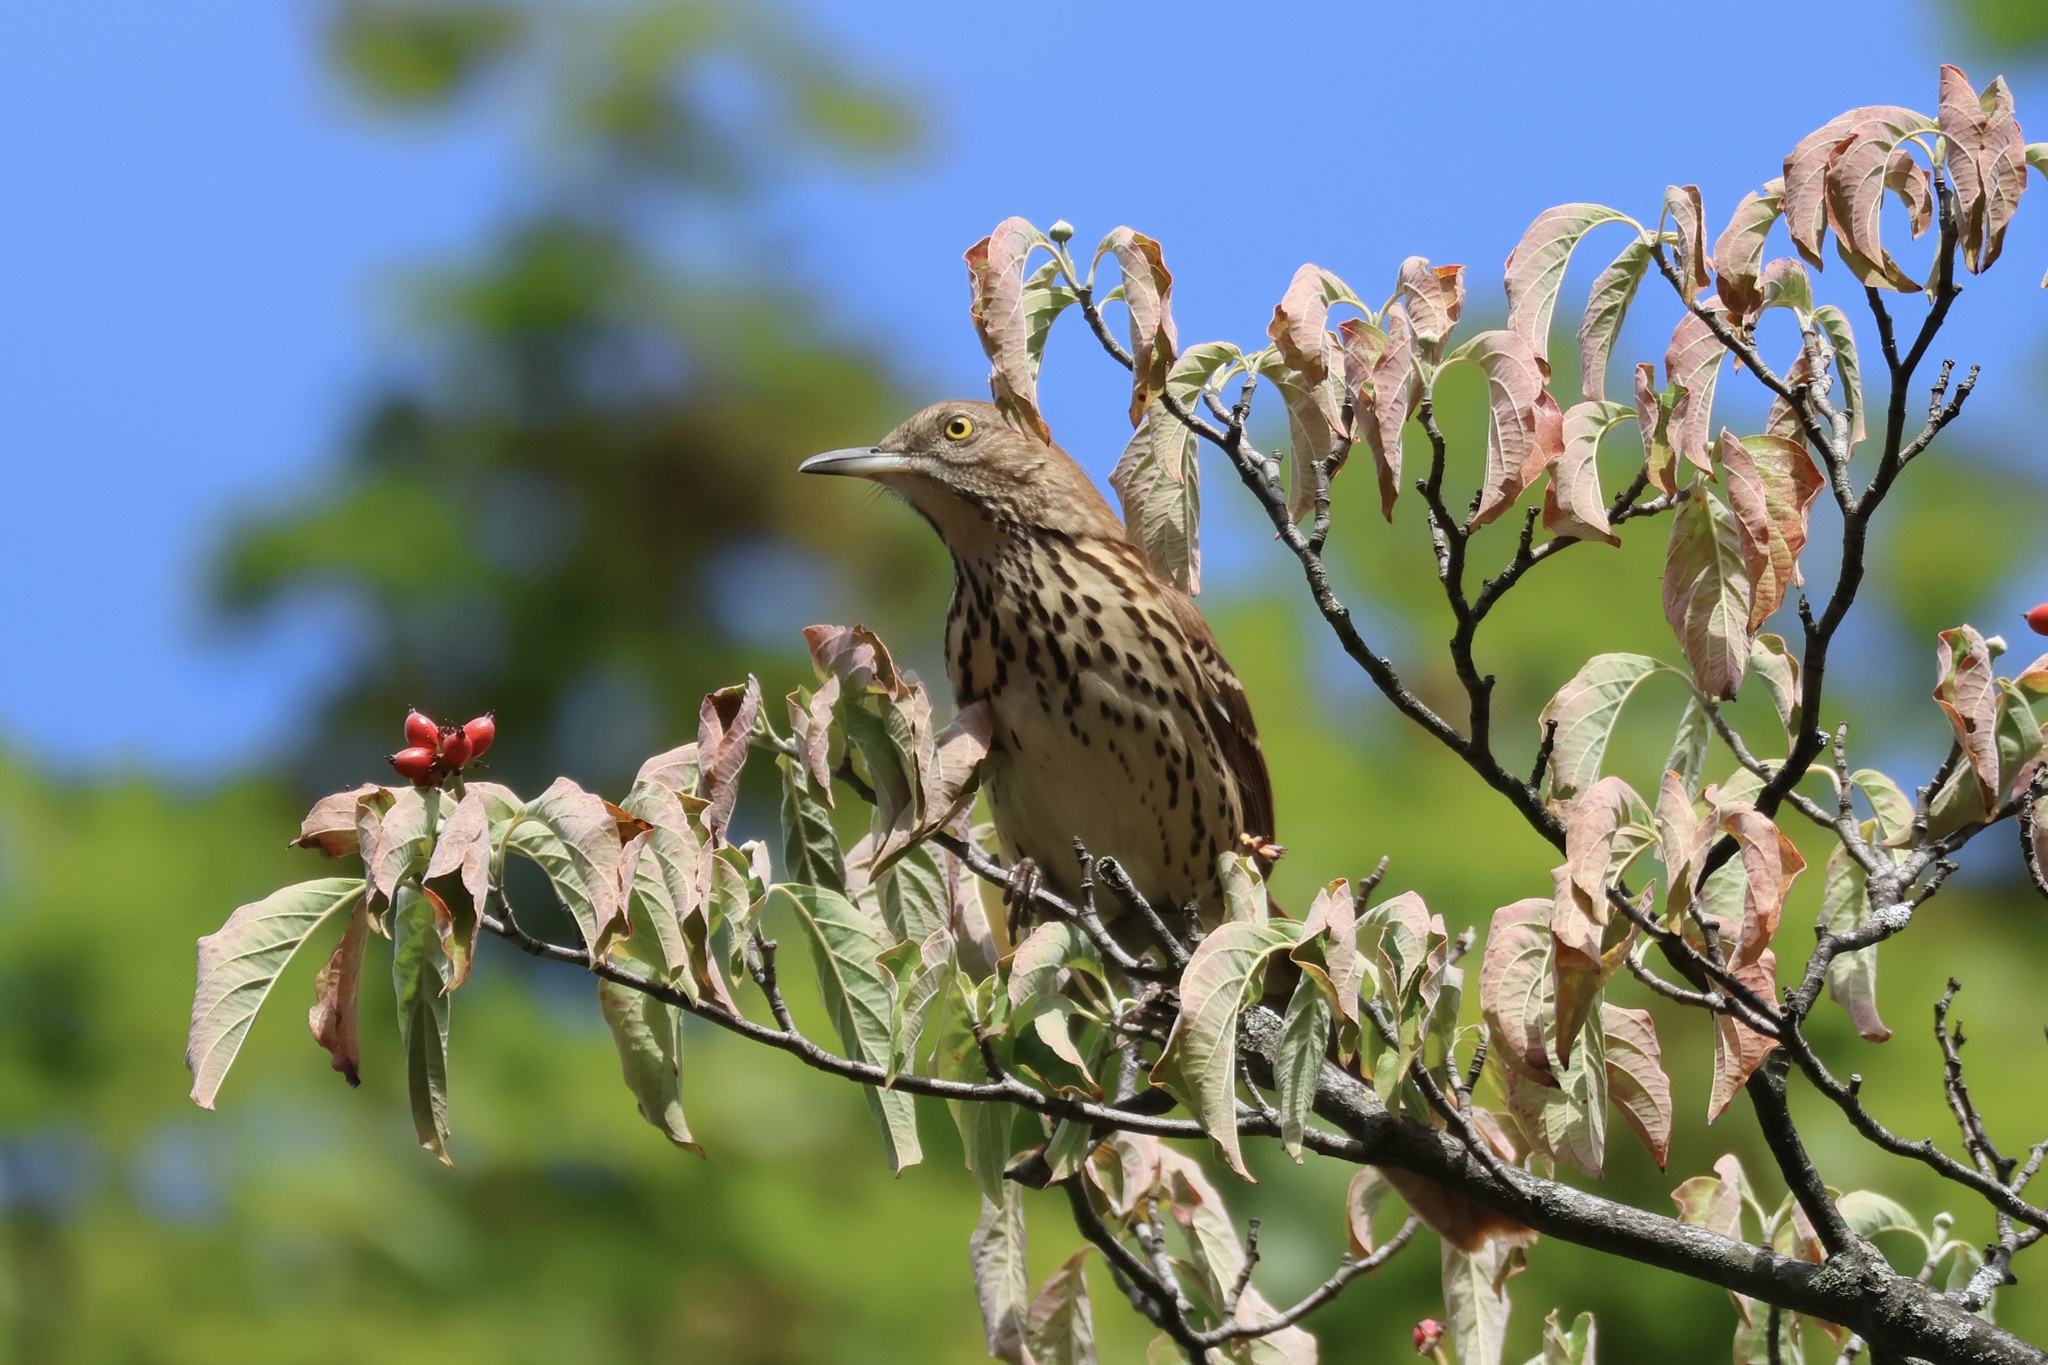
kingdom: Animalia
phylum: Chordata
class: Aves
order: Passeriformes
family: Mimidae
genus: Toxostoma
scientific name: Toxostoma rufum
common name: Brown thrasher
